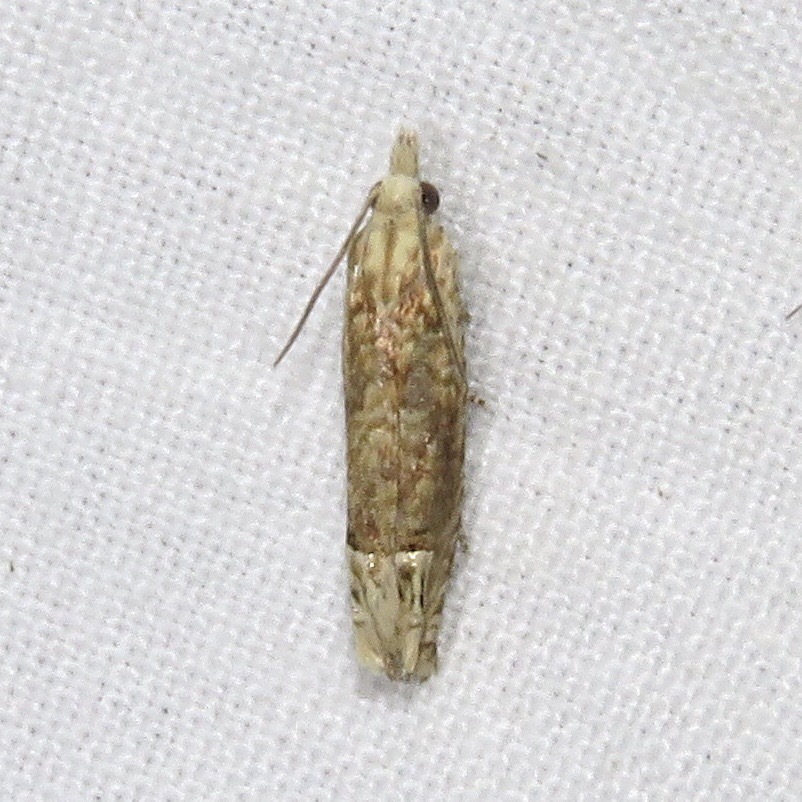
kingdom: Animalia
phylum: Arthropoda
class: Insecta
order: Lepidoptera
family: Tortricidae
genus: Eucosma
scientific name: Eucosma ochrocephala
